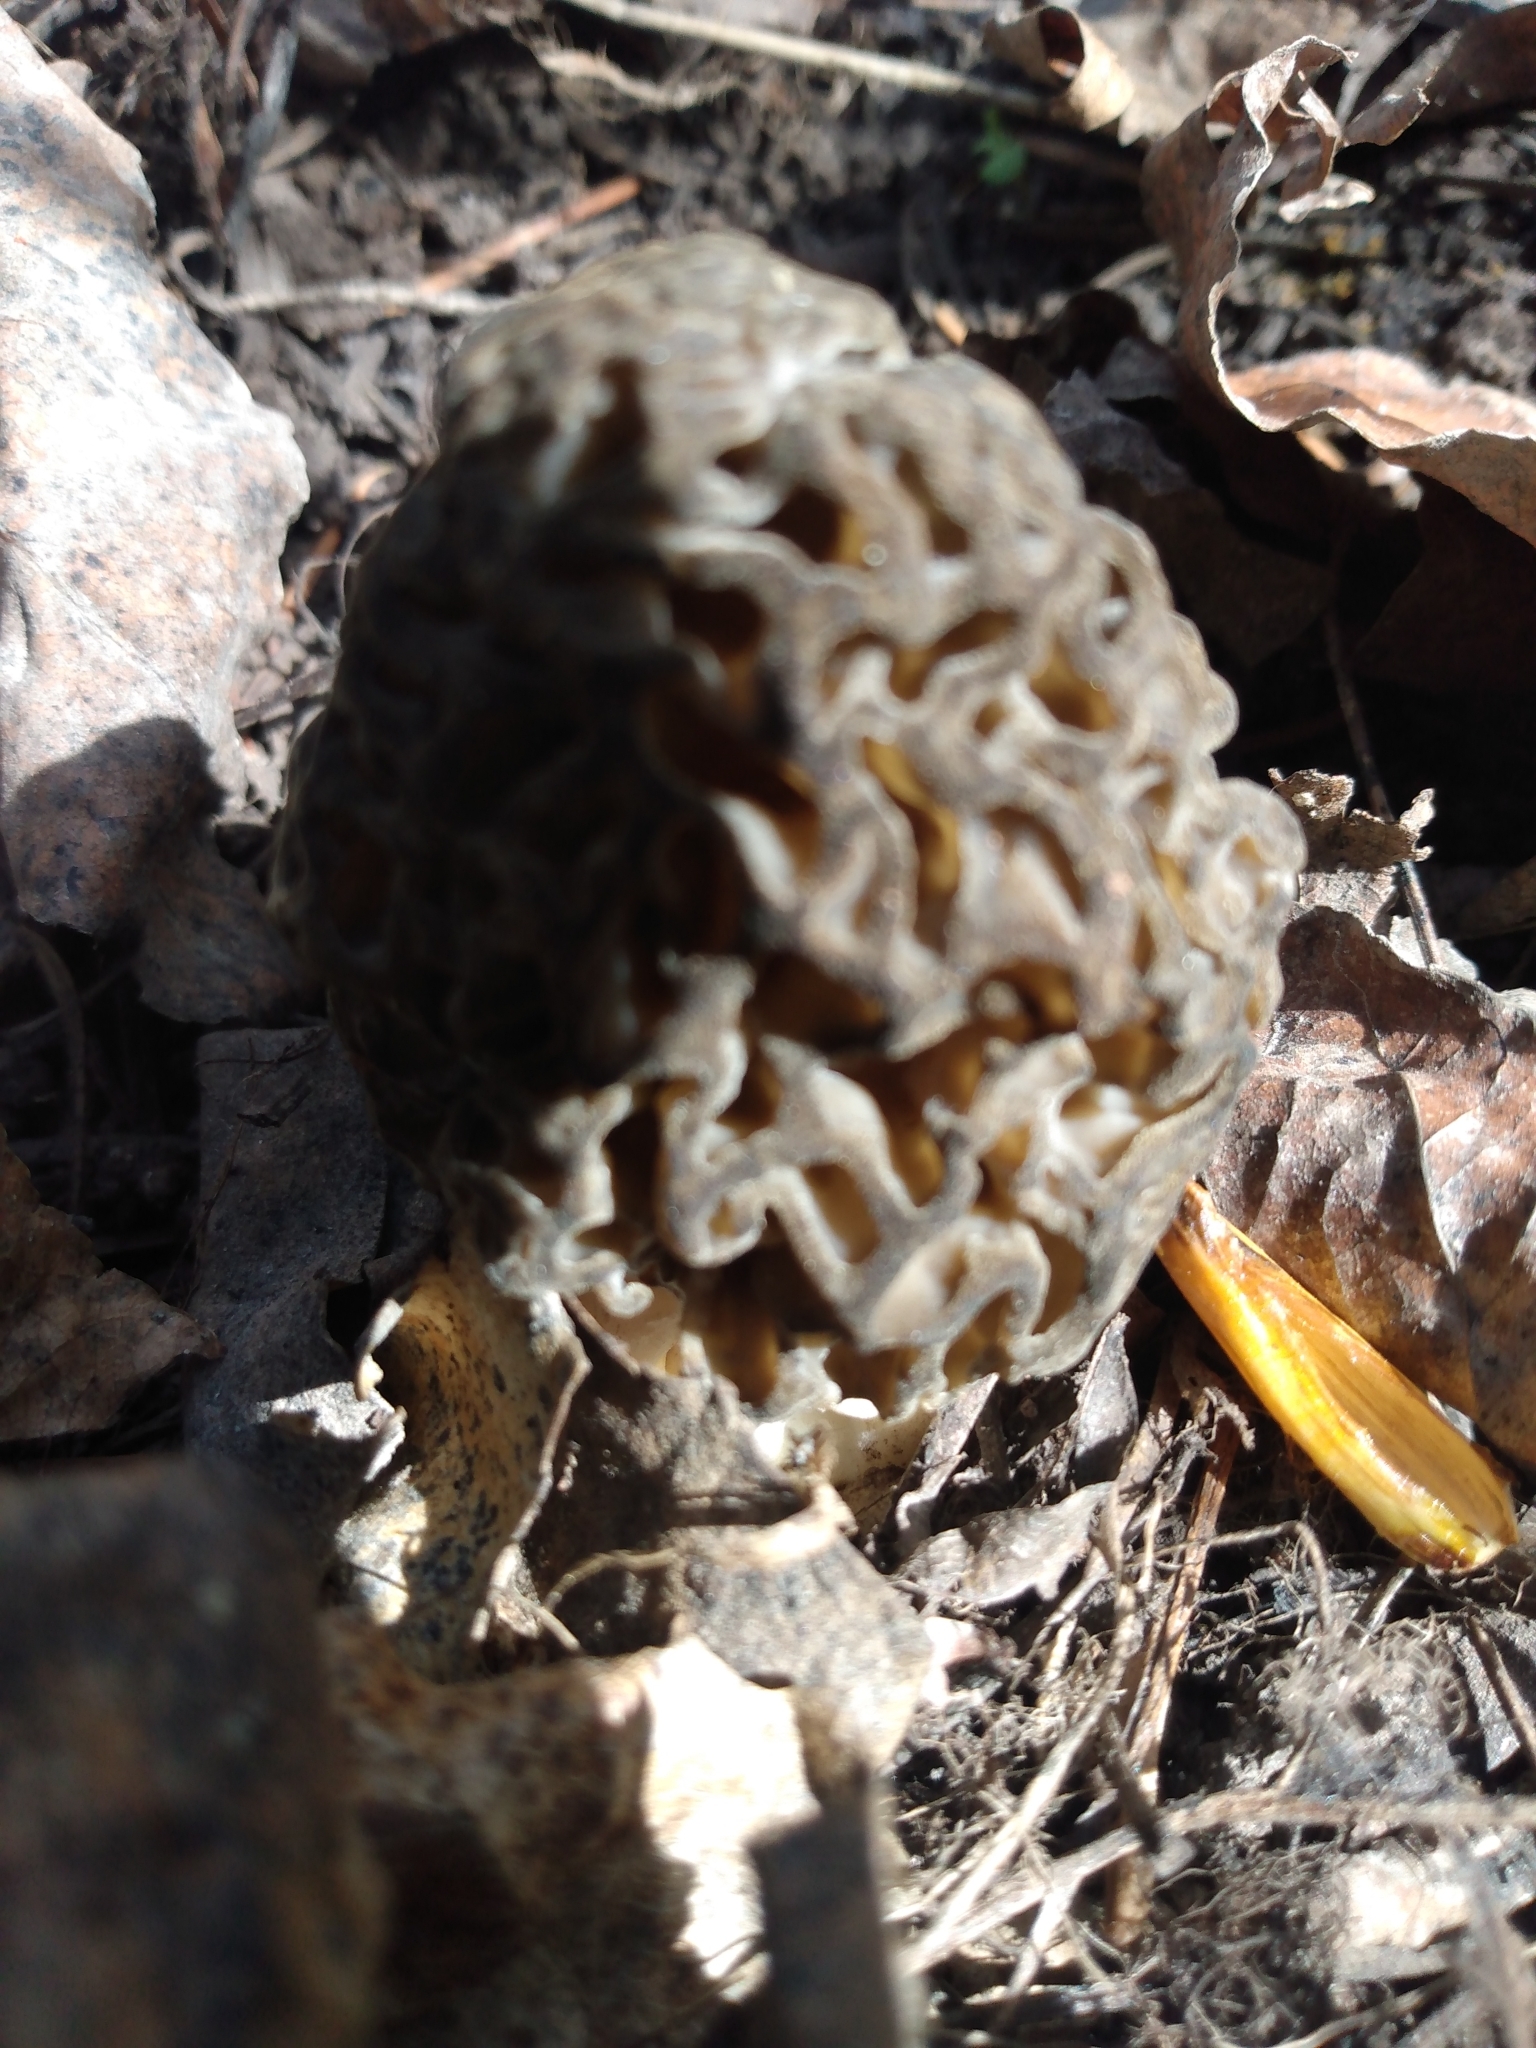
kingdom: Fungi
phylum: Ascomycota
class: Pezizomycetes
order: Pezizales
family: Morchellaceae
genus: Morchella
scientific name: Morchella snyderi
